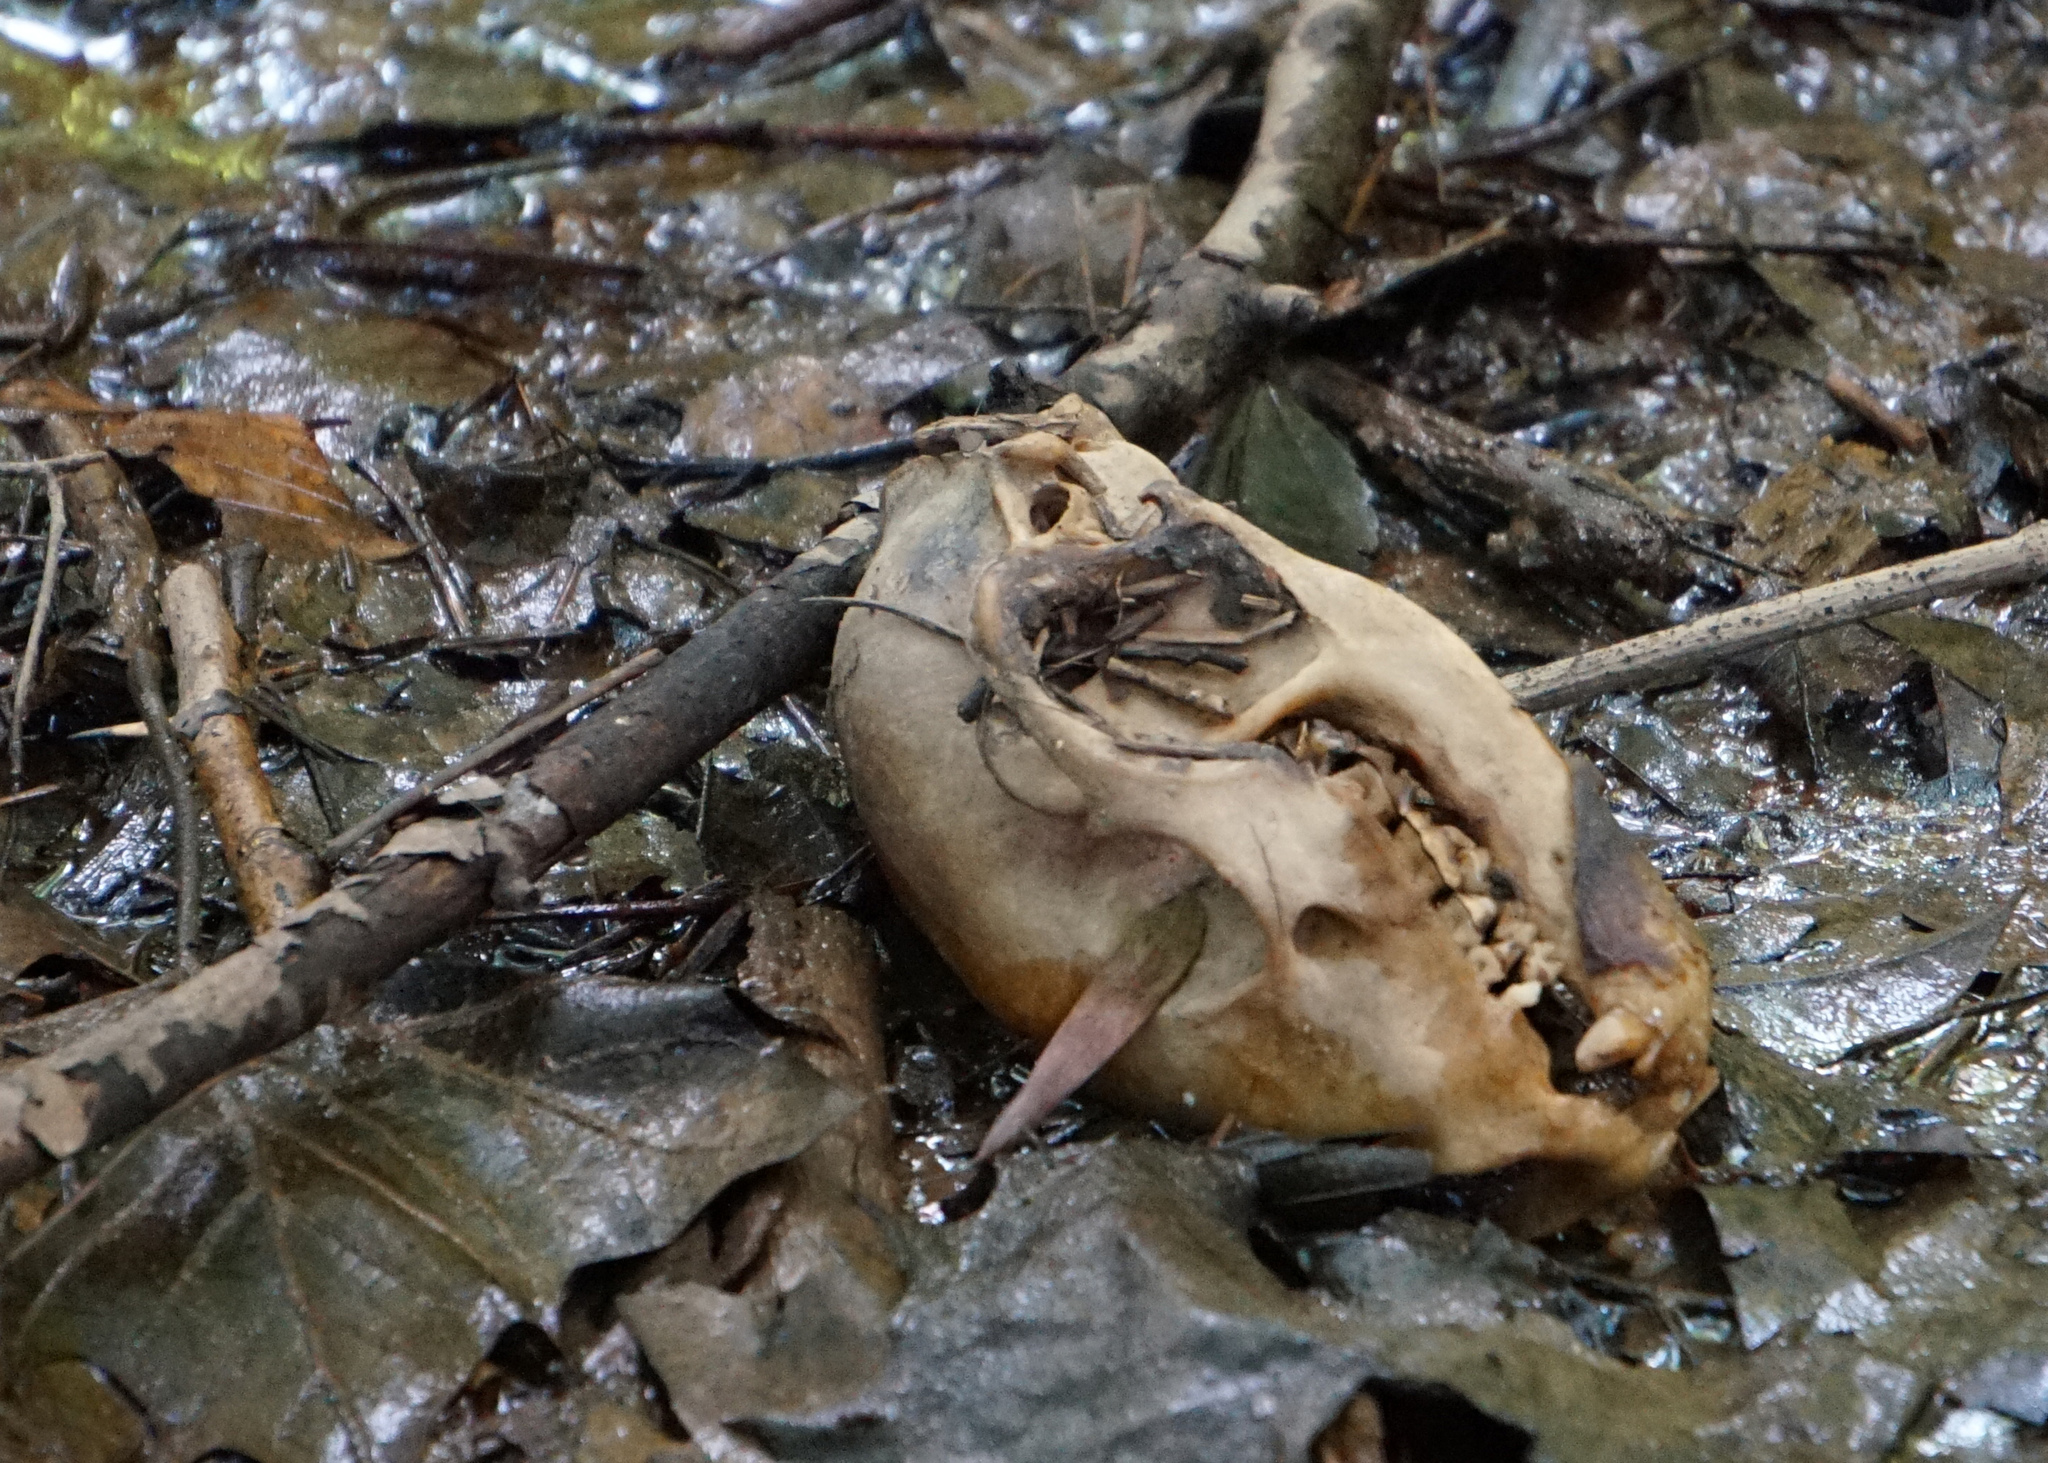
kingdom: Animalia
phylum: Chordata
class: Mammalia
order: Carnivora
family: Procyonidae
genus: Procyon
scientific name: Procyon lotor
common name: Raccoon
